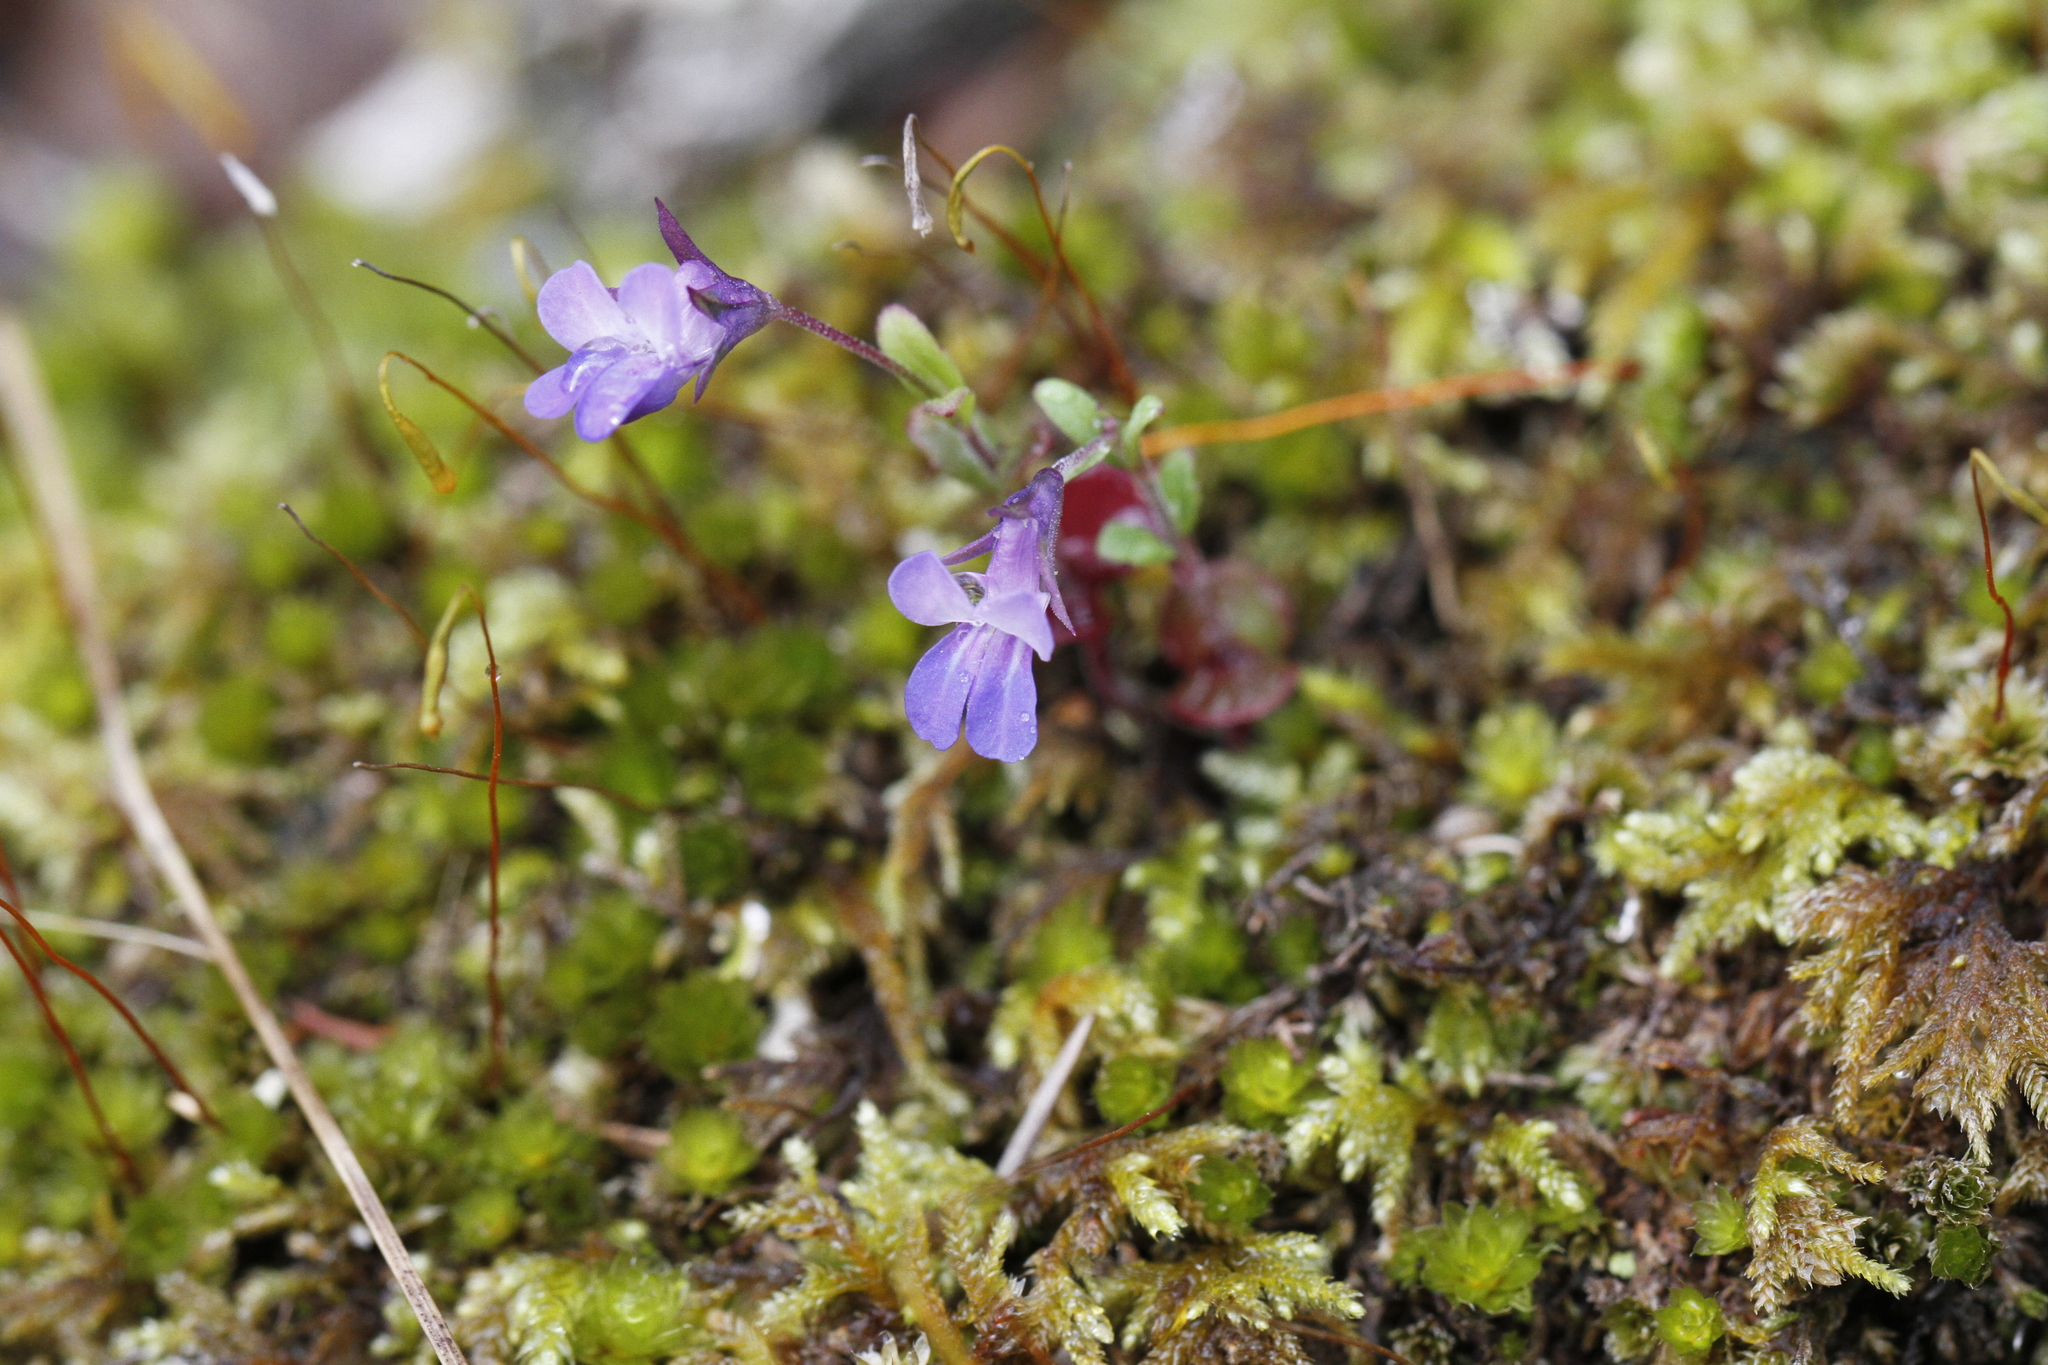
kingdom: Plantae
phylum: Tracheophyta
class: Magnoliopsida
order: Lamiales
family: Plantaginaceae
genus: Collinsia
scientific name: Collinsia parviflora
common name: Blue-lips
